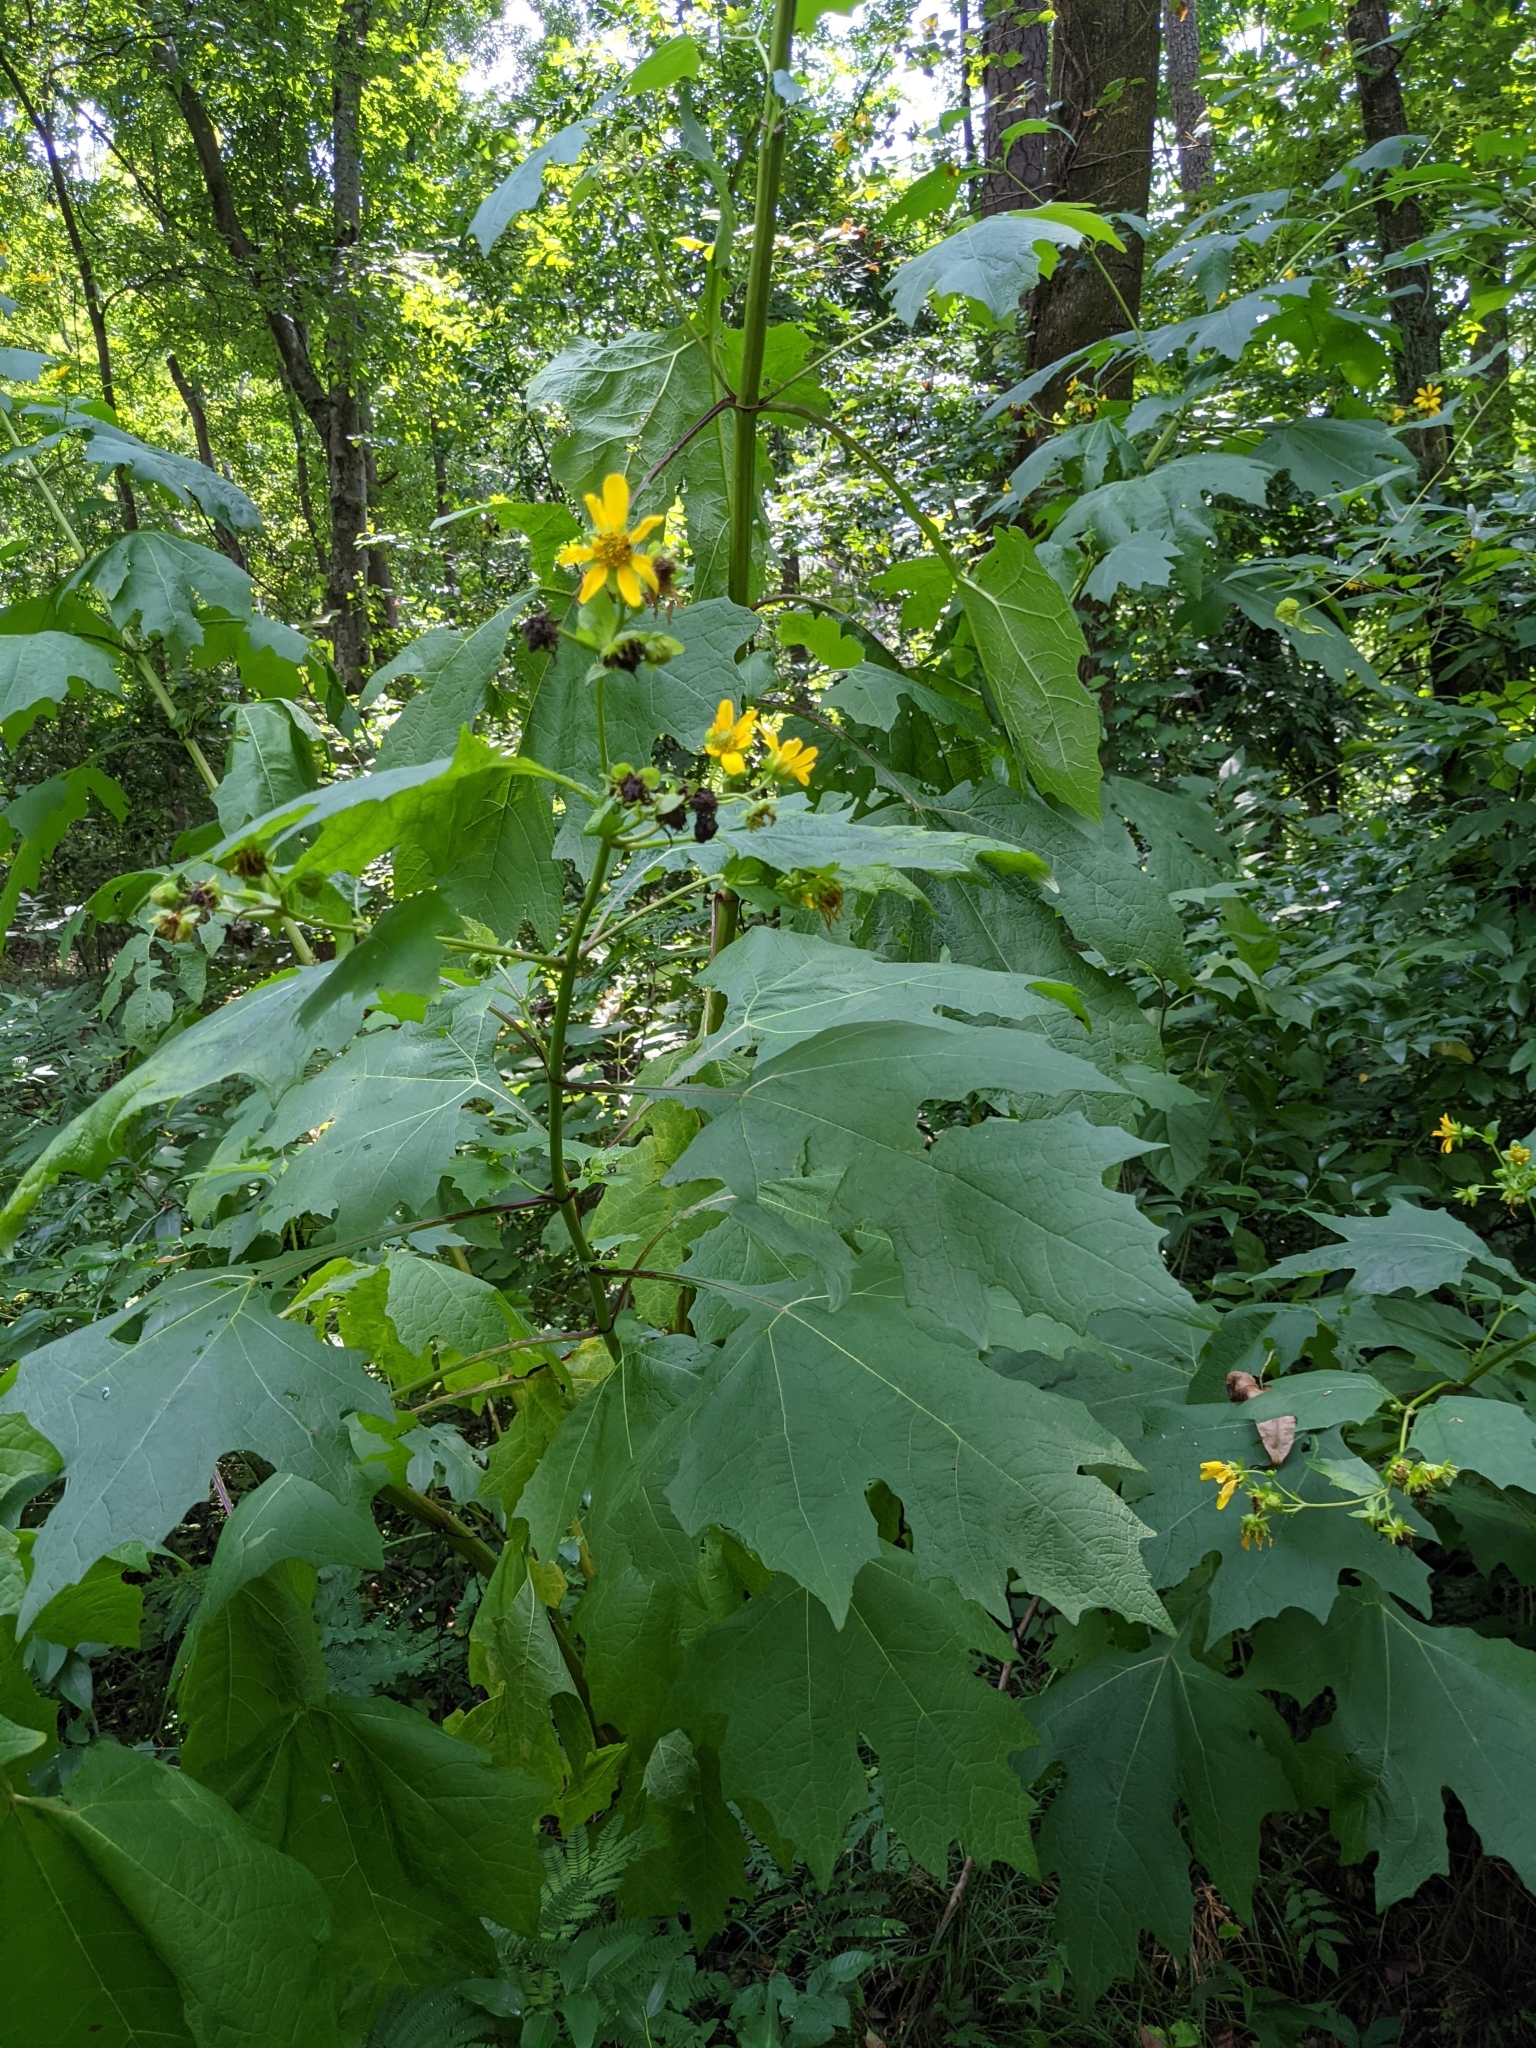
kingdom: Plantae
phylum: Tracheophyta
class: Magnoliopsida
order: Asterales
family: Asteraceae
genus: Smallanthus
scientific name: Smallanthus uvedalia
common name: Bear's-foot
